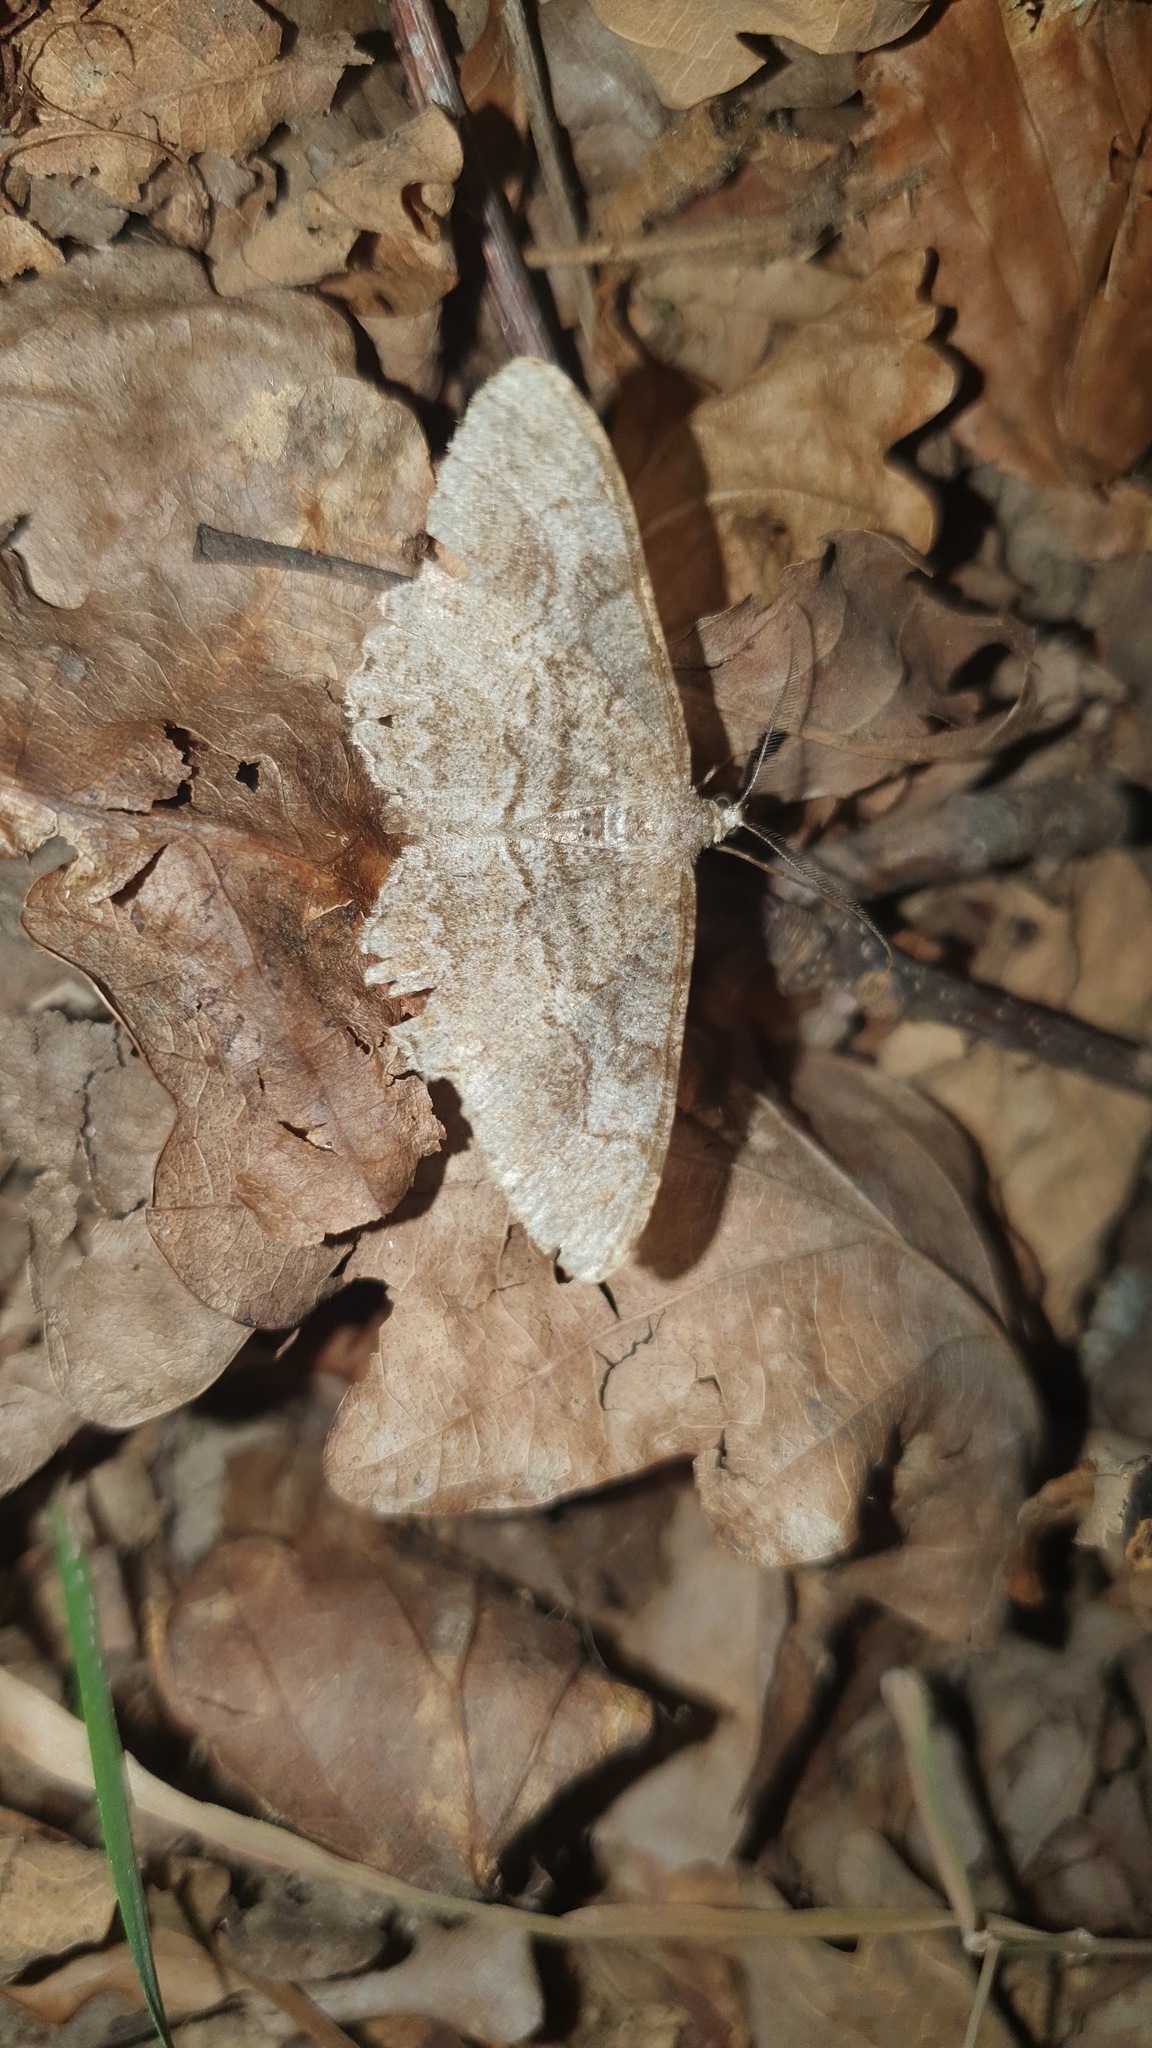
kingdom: Animalia
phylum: Arthropoda
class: Insecta
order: Lepidoptera
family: Geometridae
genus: Alcis
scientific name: Alcis repandata
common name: Mottled beauty
